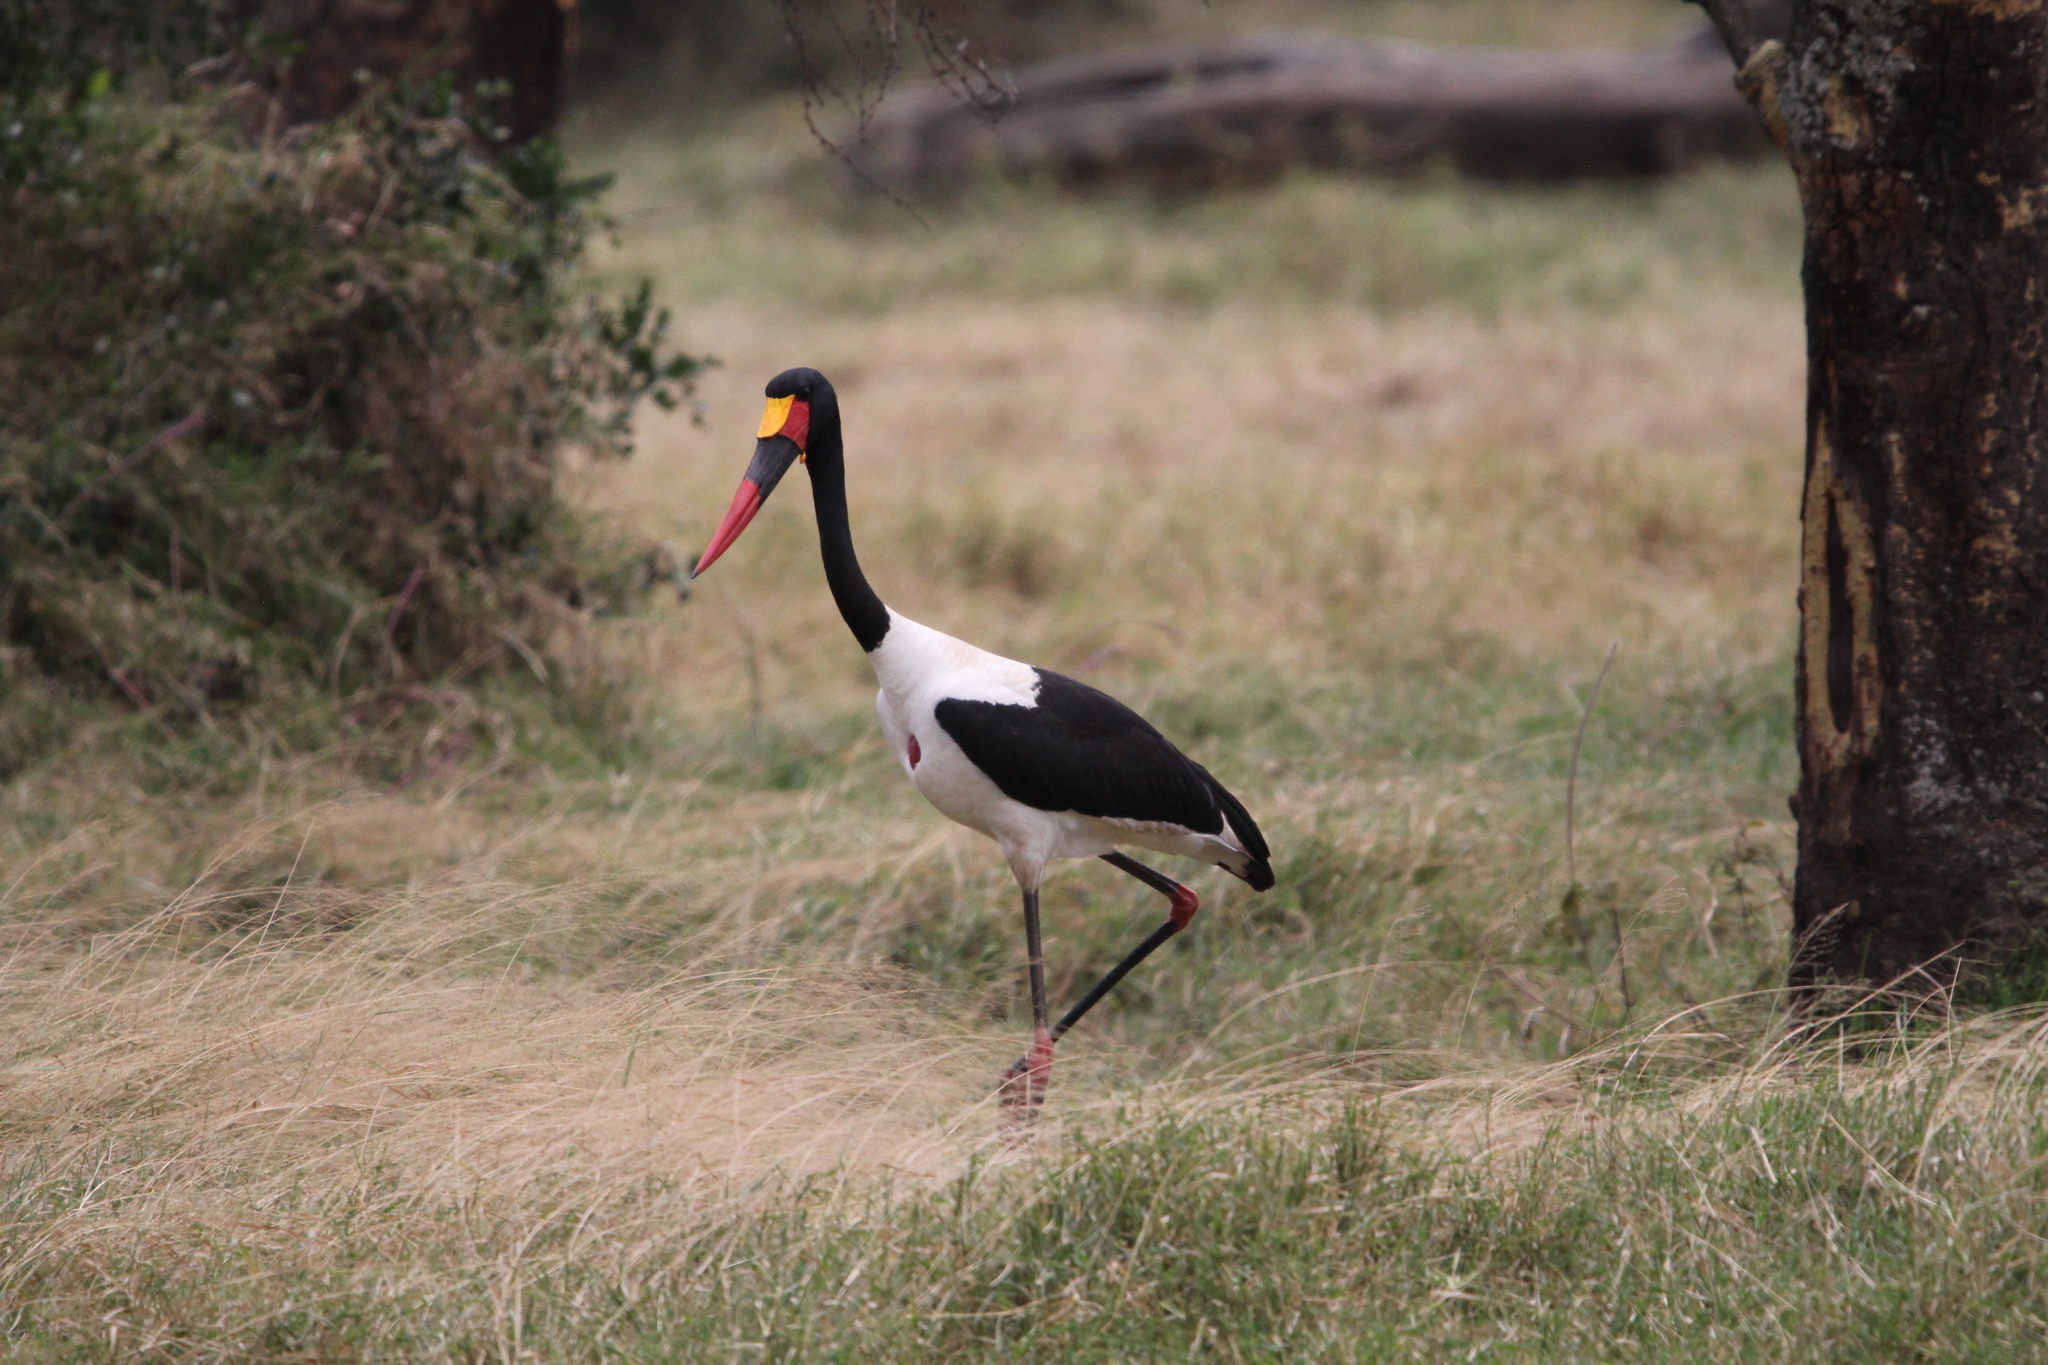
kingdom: Animalia
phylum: Chordata
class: Aves
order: Ciconiiformes
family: Ciconiidae
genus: Ephippiorhynchus
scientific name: Ephippiorhynchus senegalensis
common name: Saddle-billed stork
